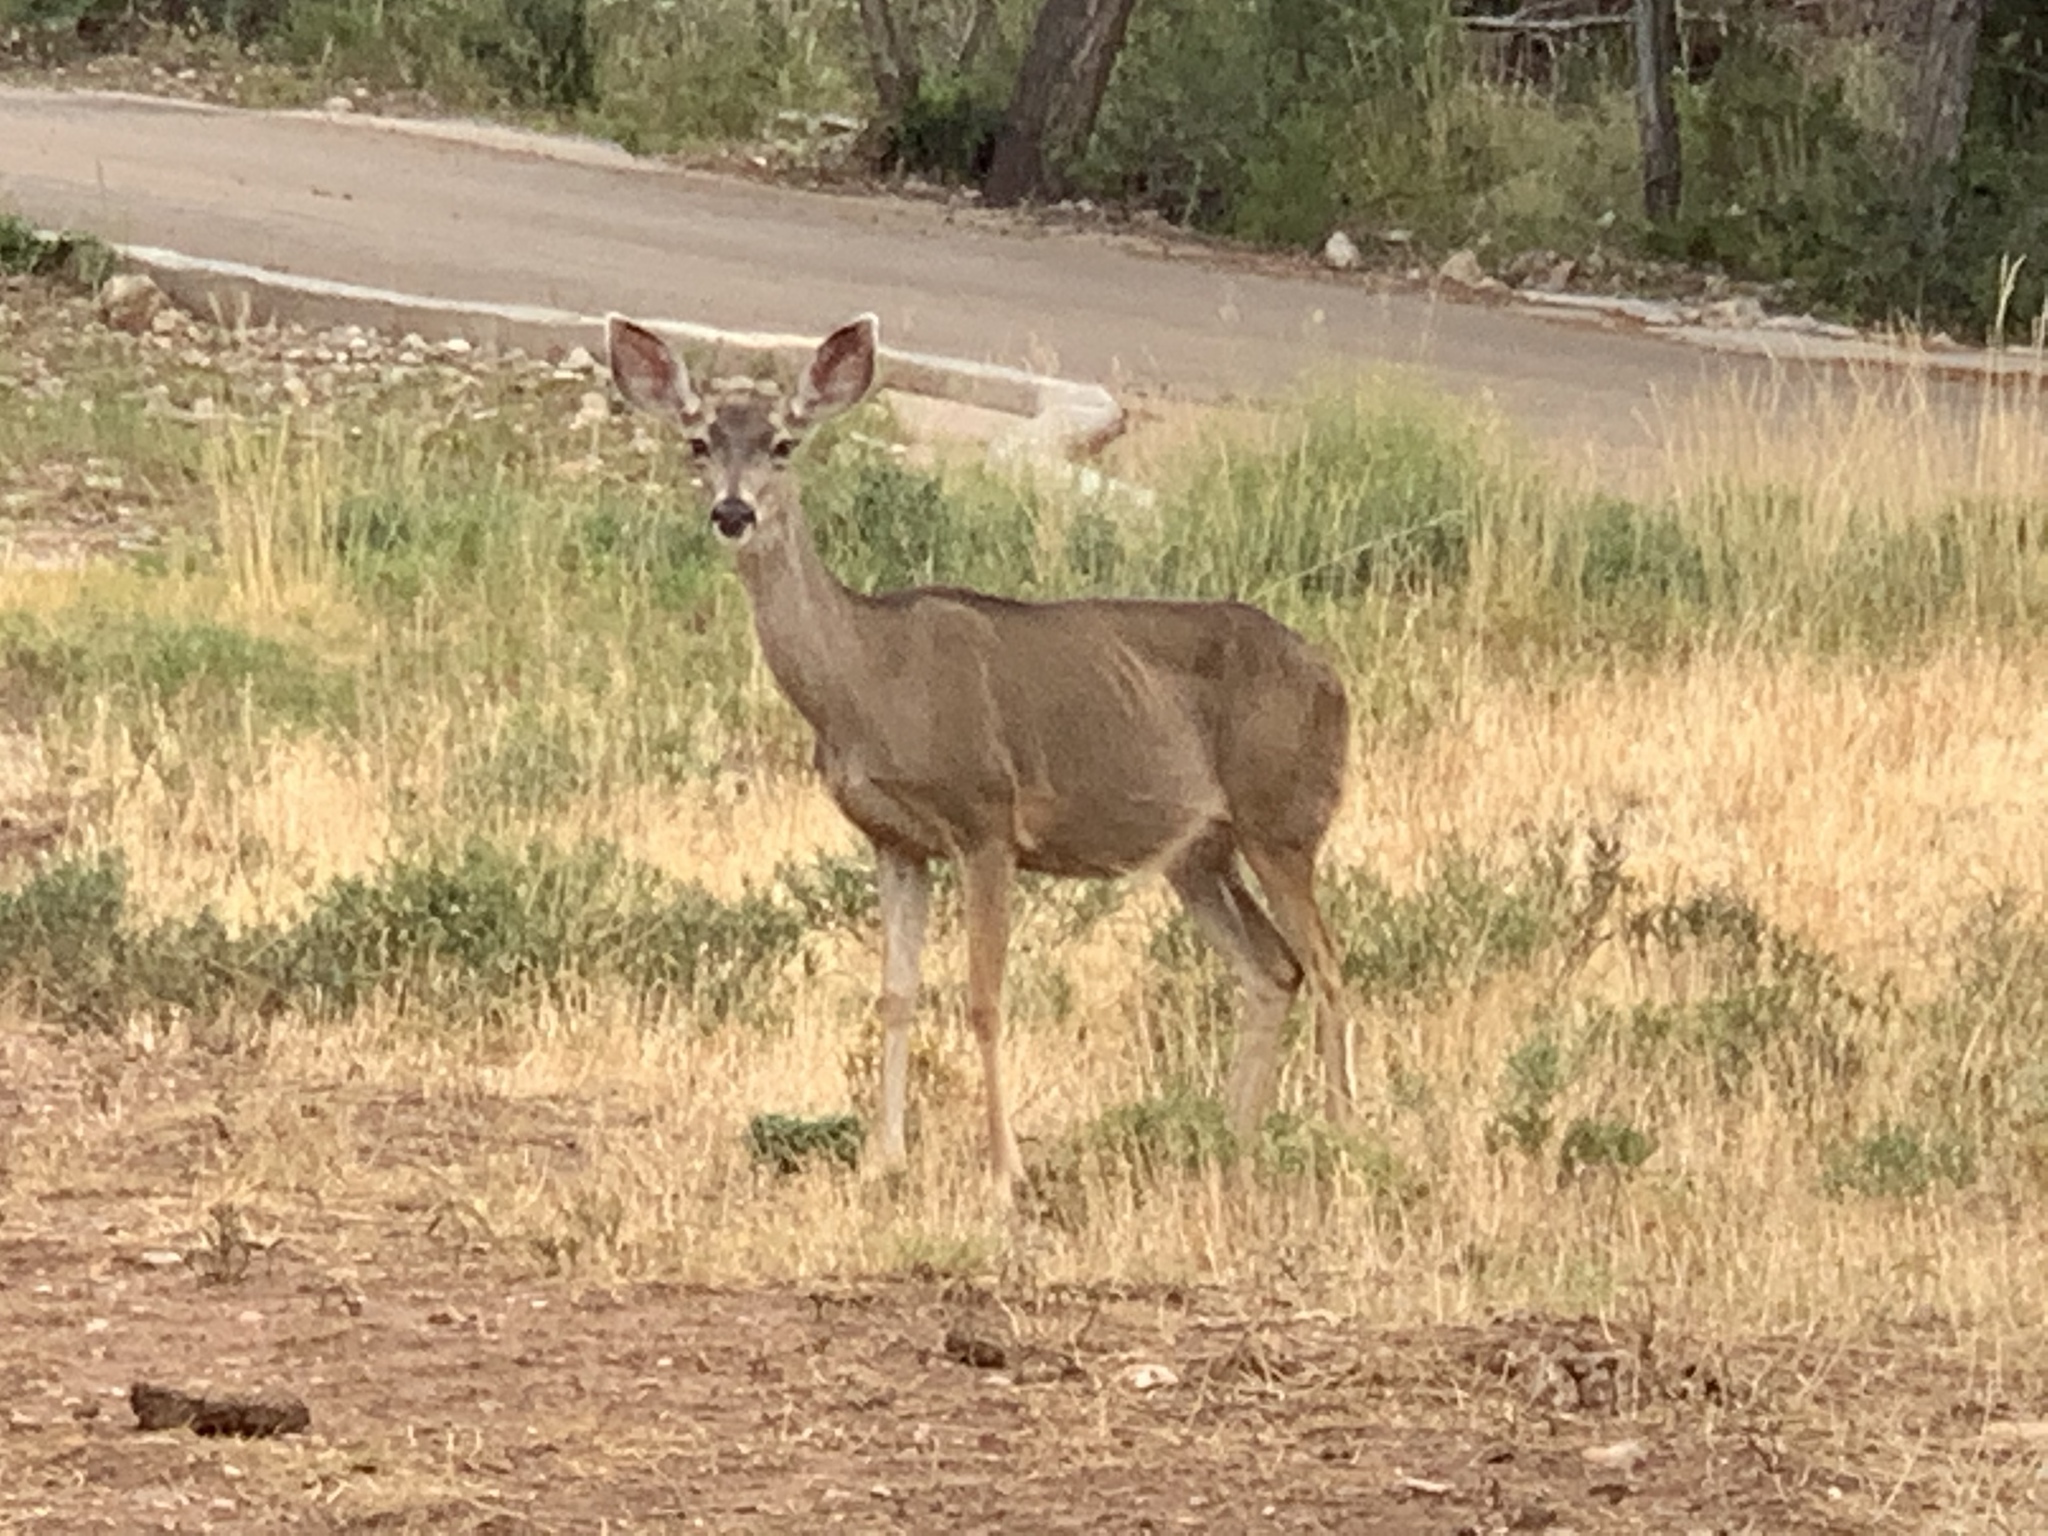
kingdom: Animalia
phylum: Chordata
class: Mammalia
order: Artiodactyla
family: Cervidae
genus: Odocoileus
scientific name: Odocoileus hemionus
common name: Mule deer
